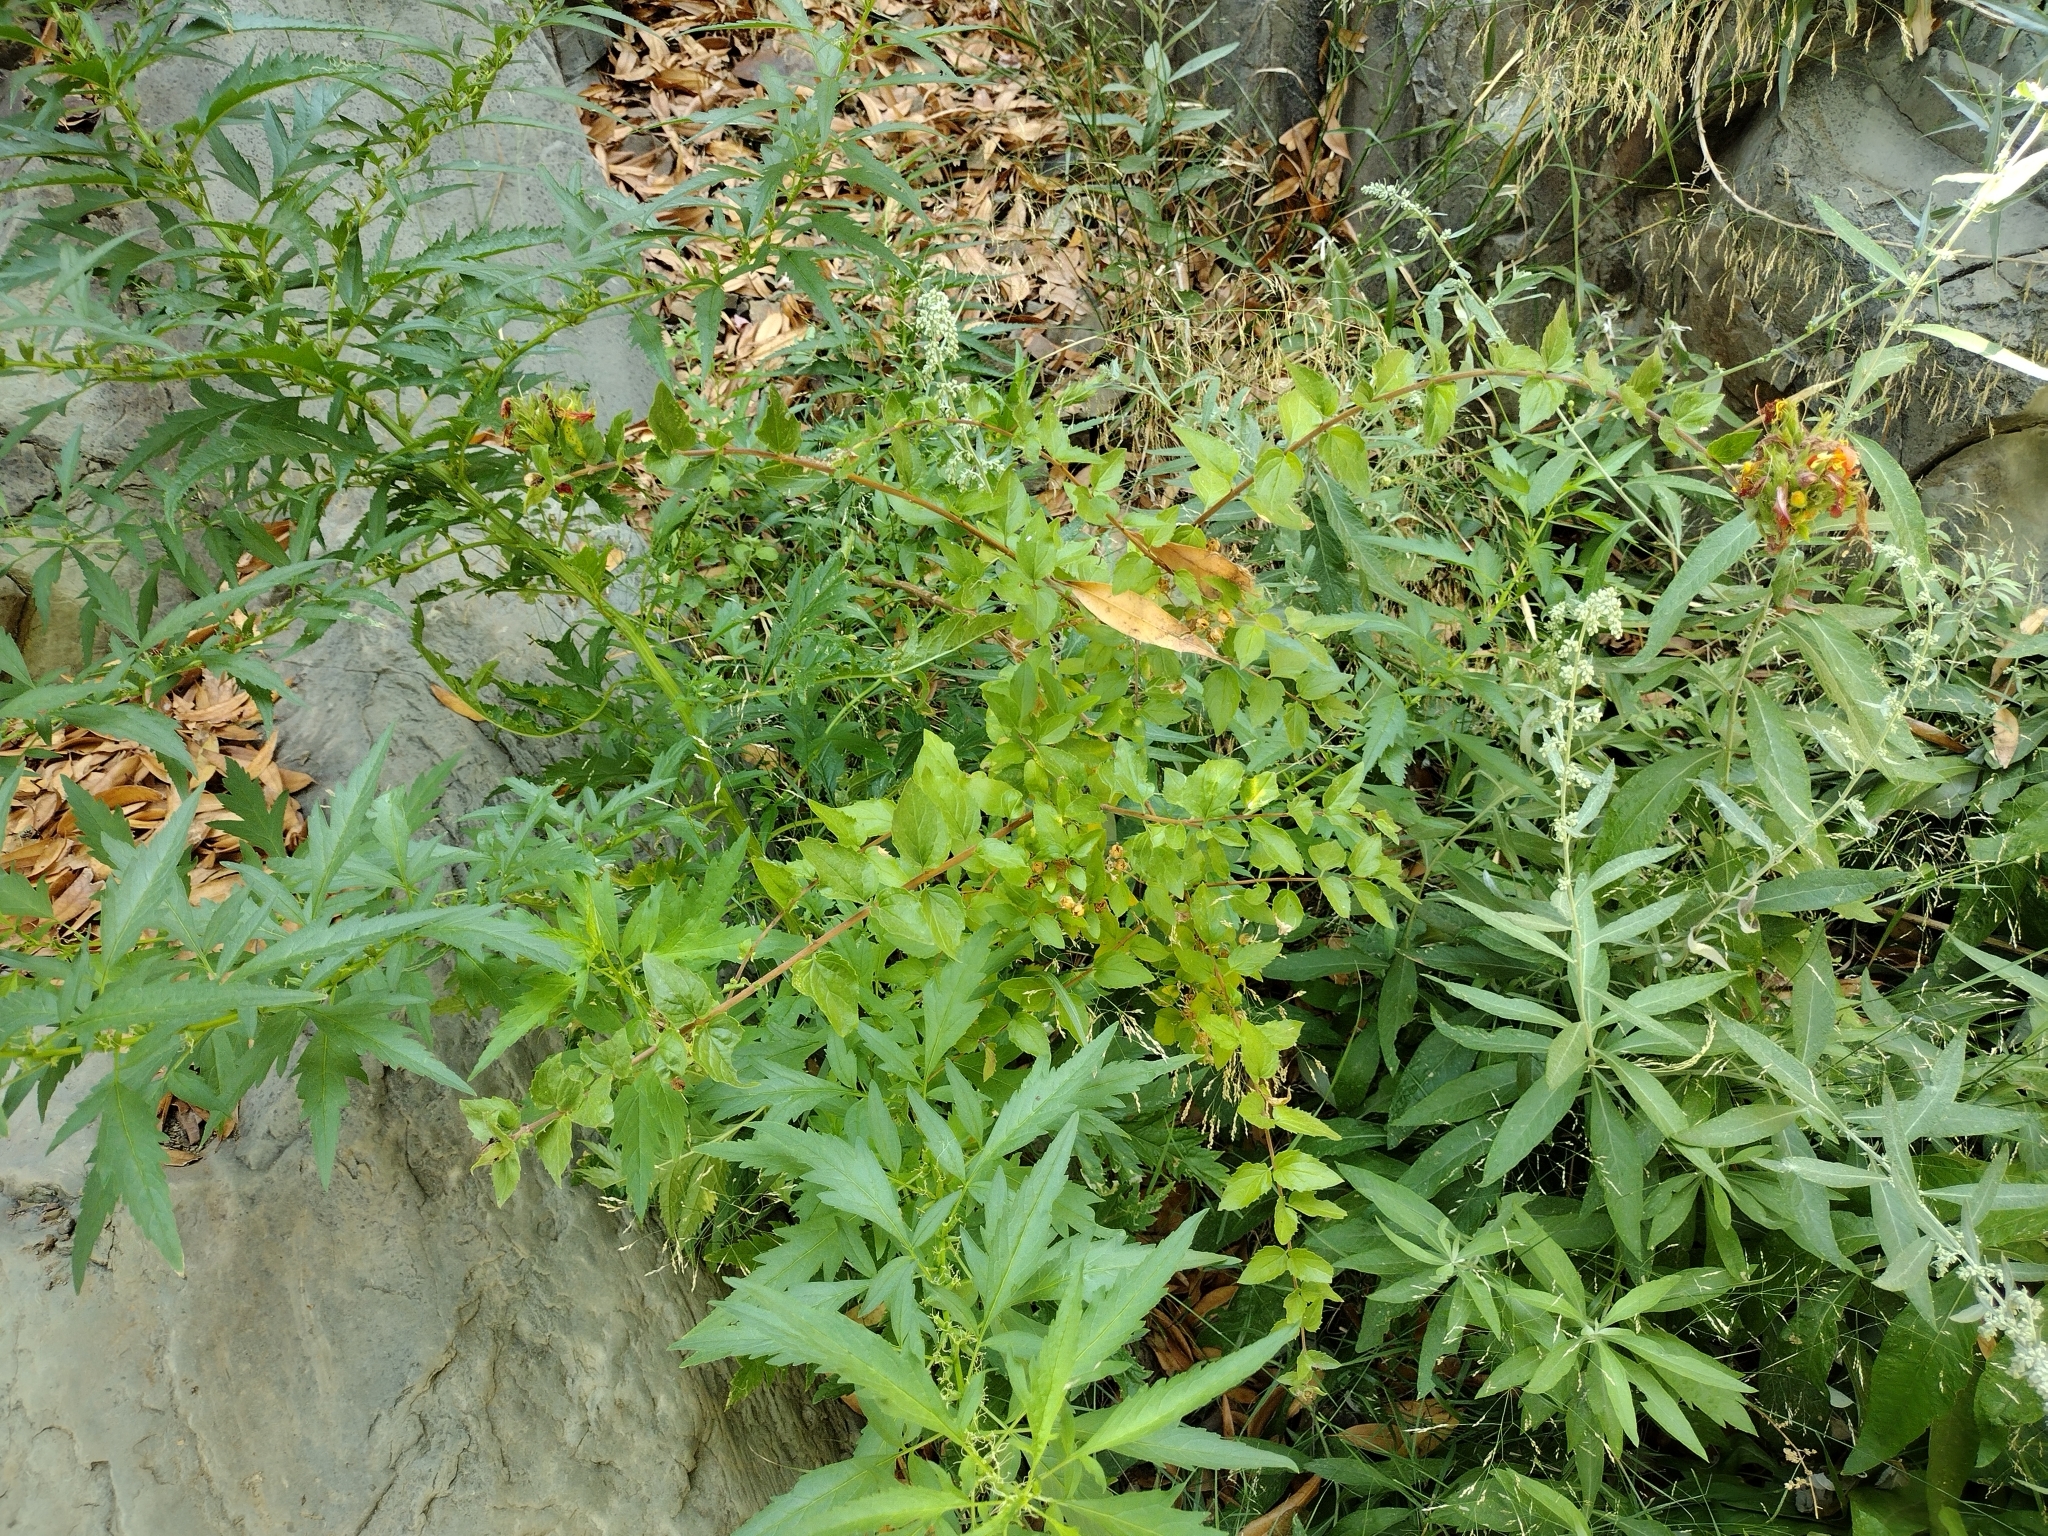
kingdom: Plantae
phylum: Tracheophyta
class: Magnoliopsida
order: Lamiales
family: Plantaginaceae
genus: Keckiella
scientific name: Keckiella cordifolia
